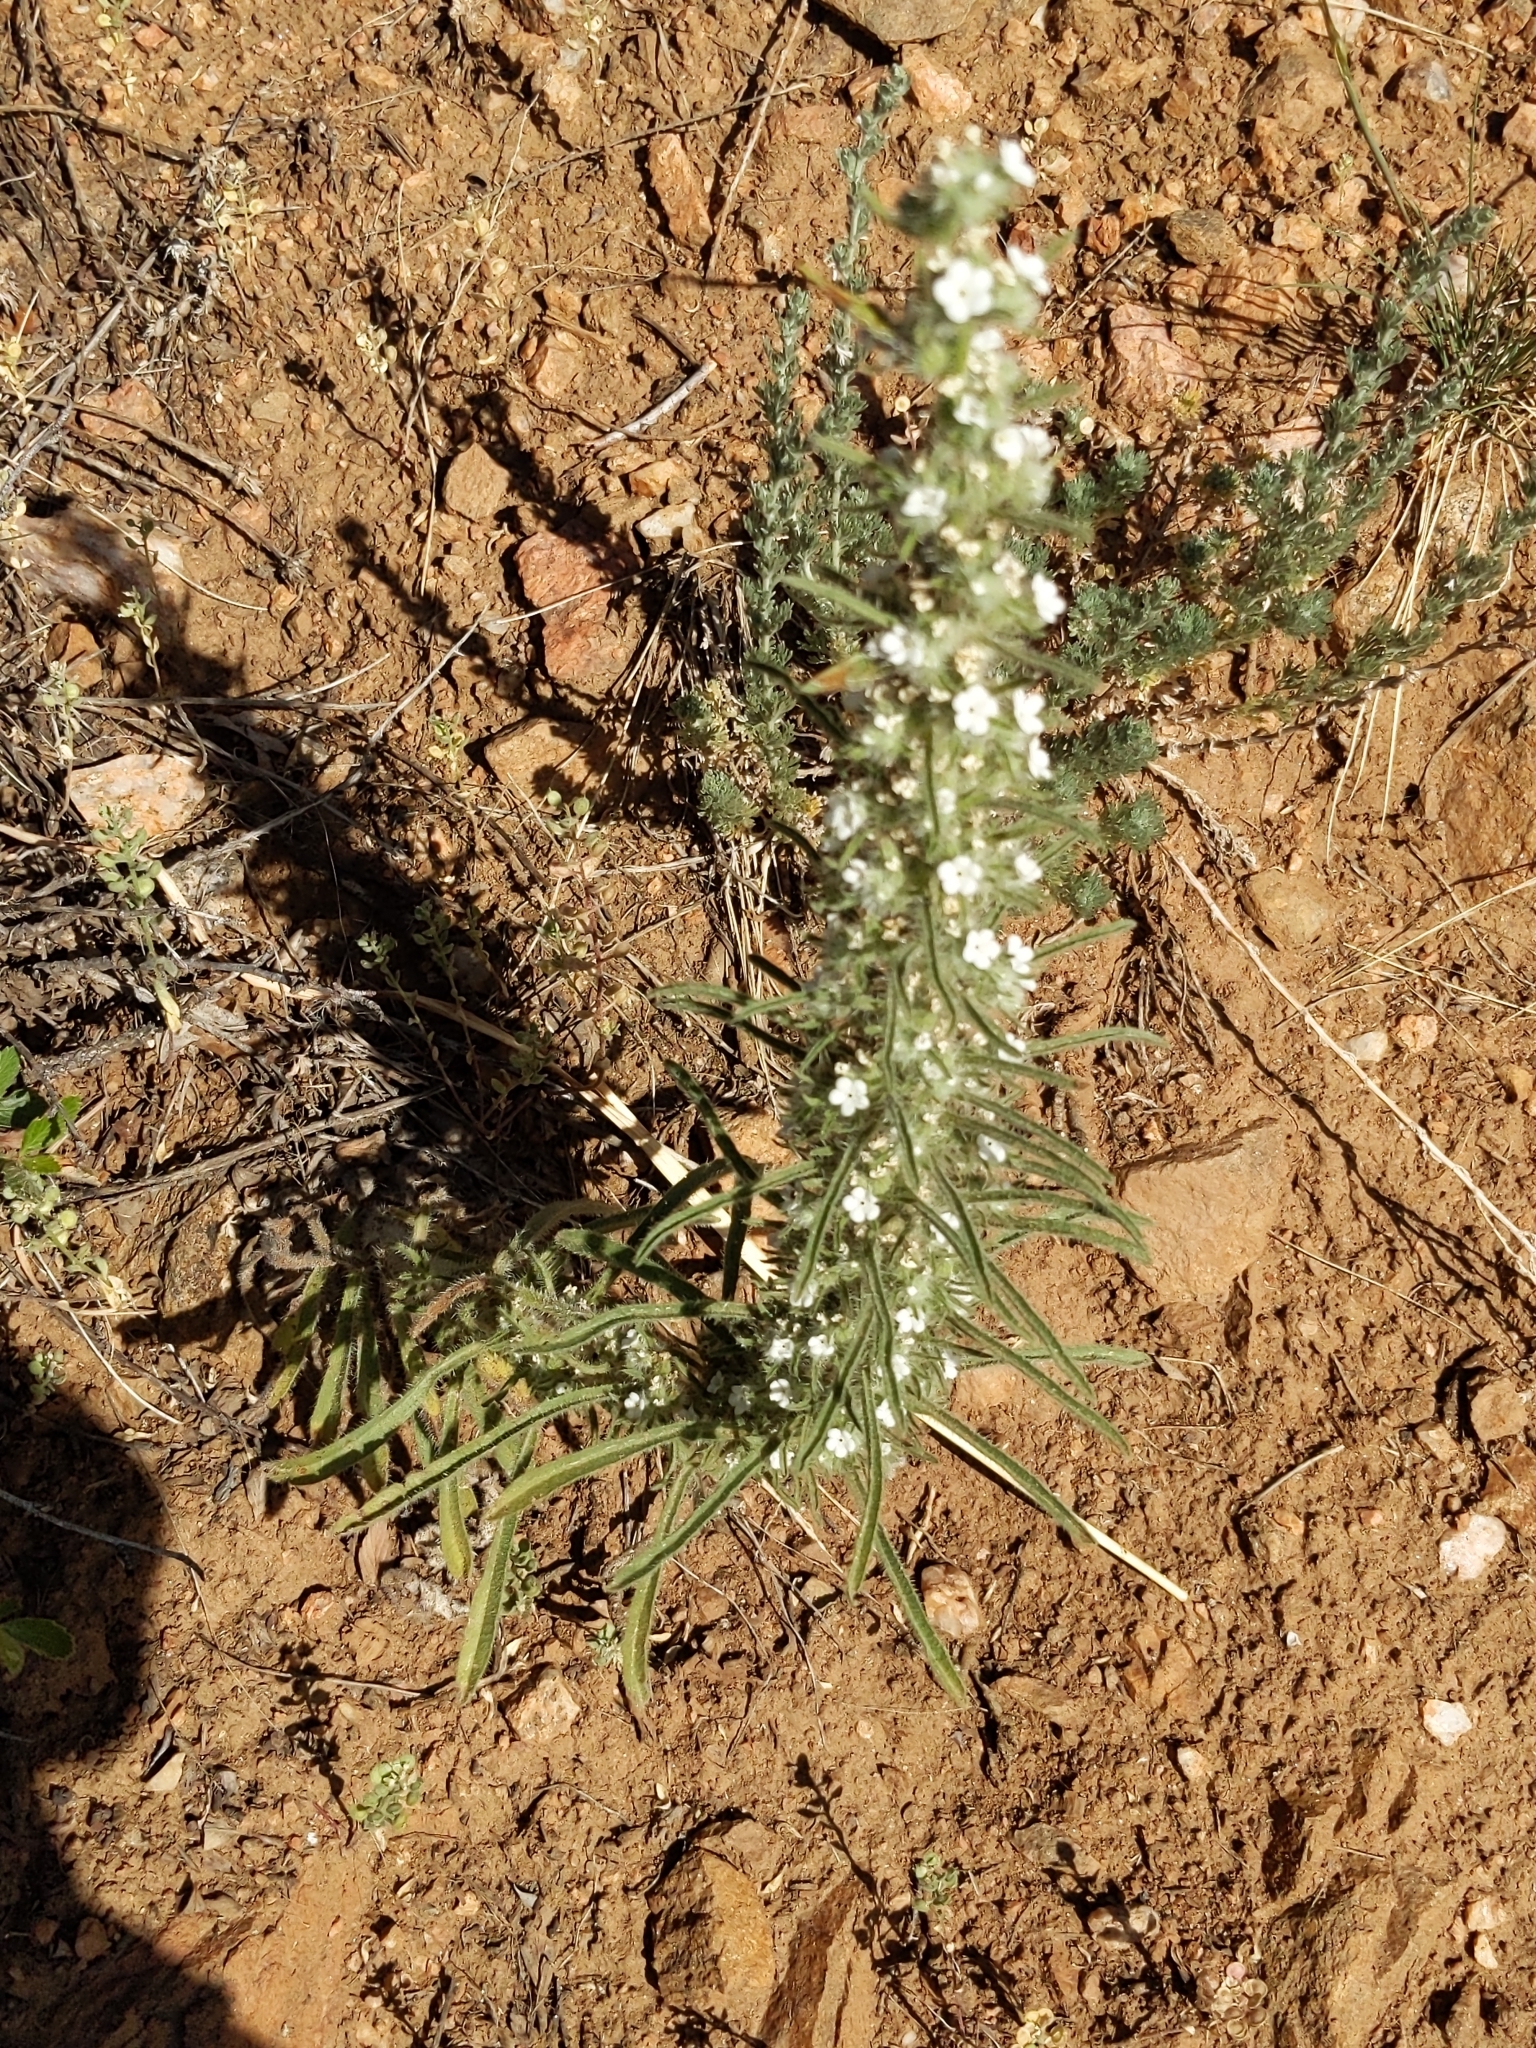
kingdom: Plantae
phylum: Tracheophyta
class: Magnoliopsida
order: Boraginales
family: Boraginaceae
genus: Oreocarya
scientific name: Oreocarya virgata
